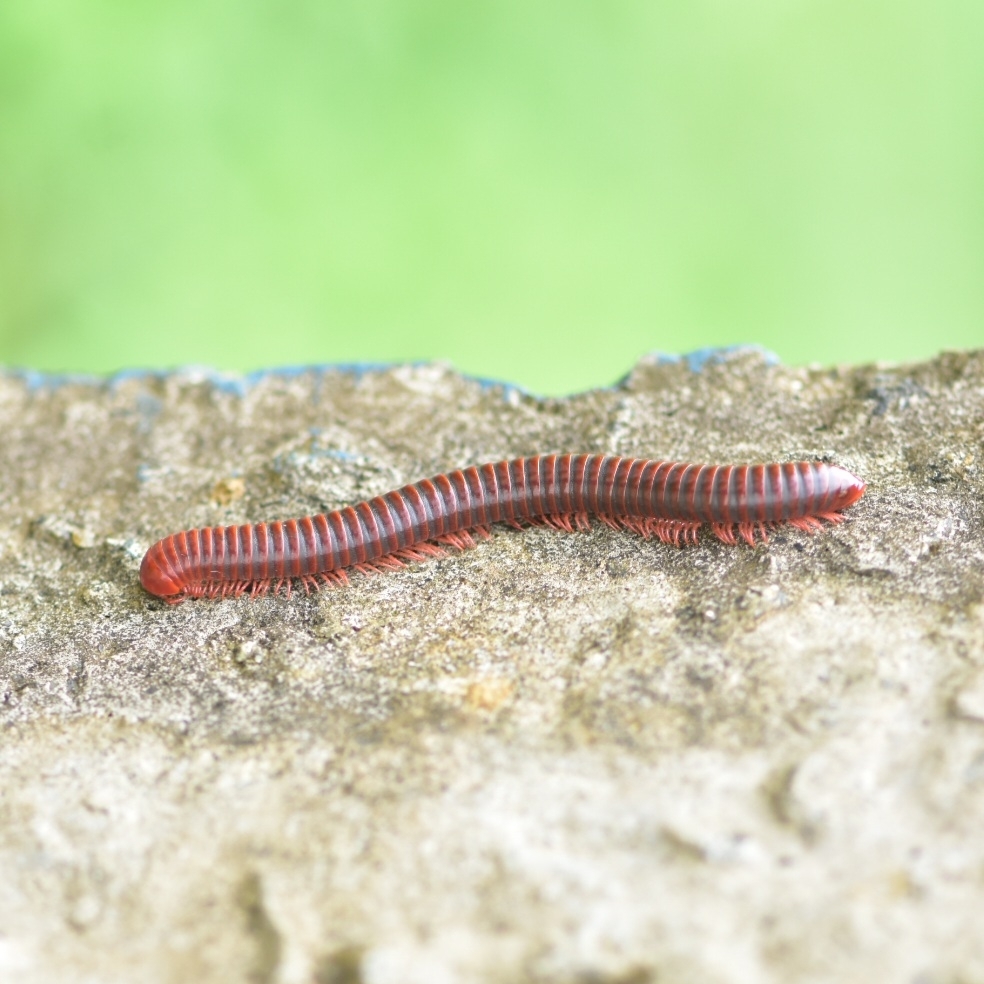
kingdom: Animalia
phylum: Arthropoda
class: Diplopoda
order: Spirobolida
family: Pachybolidae
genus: Trigoniulus
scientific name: Trigoniulus corallinus
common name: Millipede
